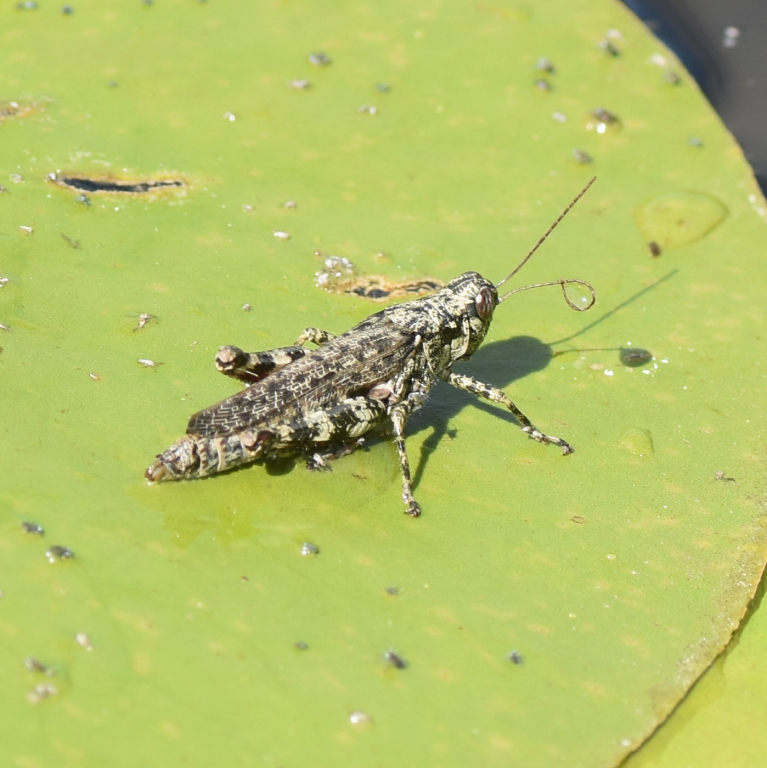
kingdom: Animalia
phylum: Arthropoda
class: Insecta
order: Orthoptera
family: Acrididae
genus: Melanoplus
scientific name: Melanoplus punctulatus
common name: Pine-tree spur-throat grasshopper
